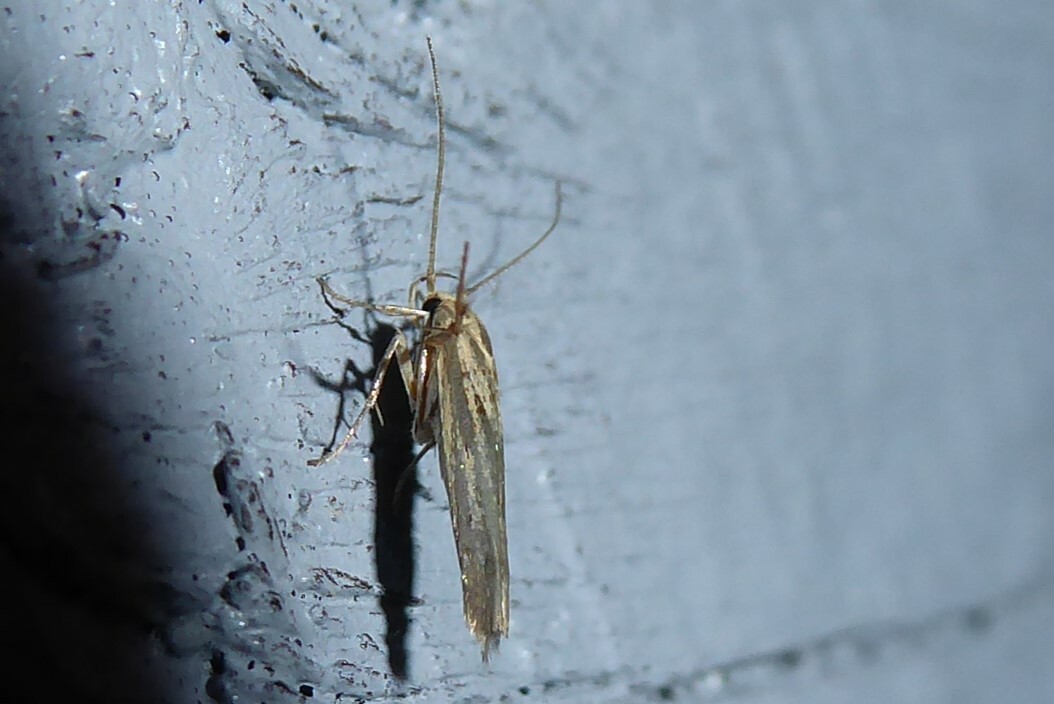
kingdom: Animalia
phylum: Arthropoda
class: Insecta
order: Lepidoptera
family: Stathmopodidae
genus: Stathmopoda
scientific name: Stathmopoda plumbiflua
